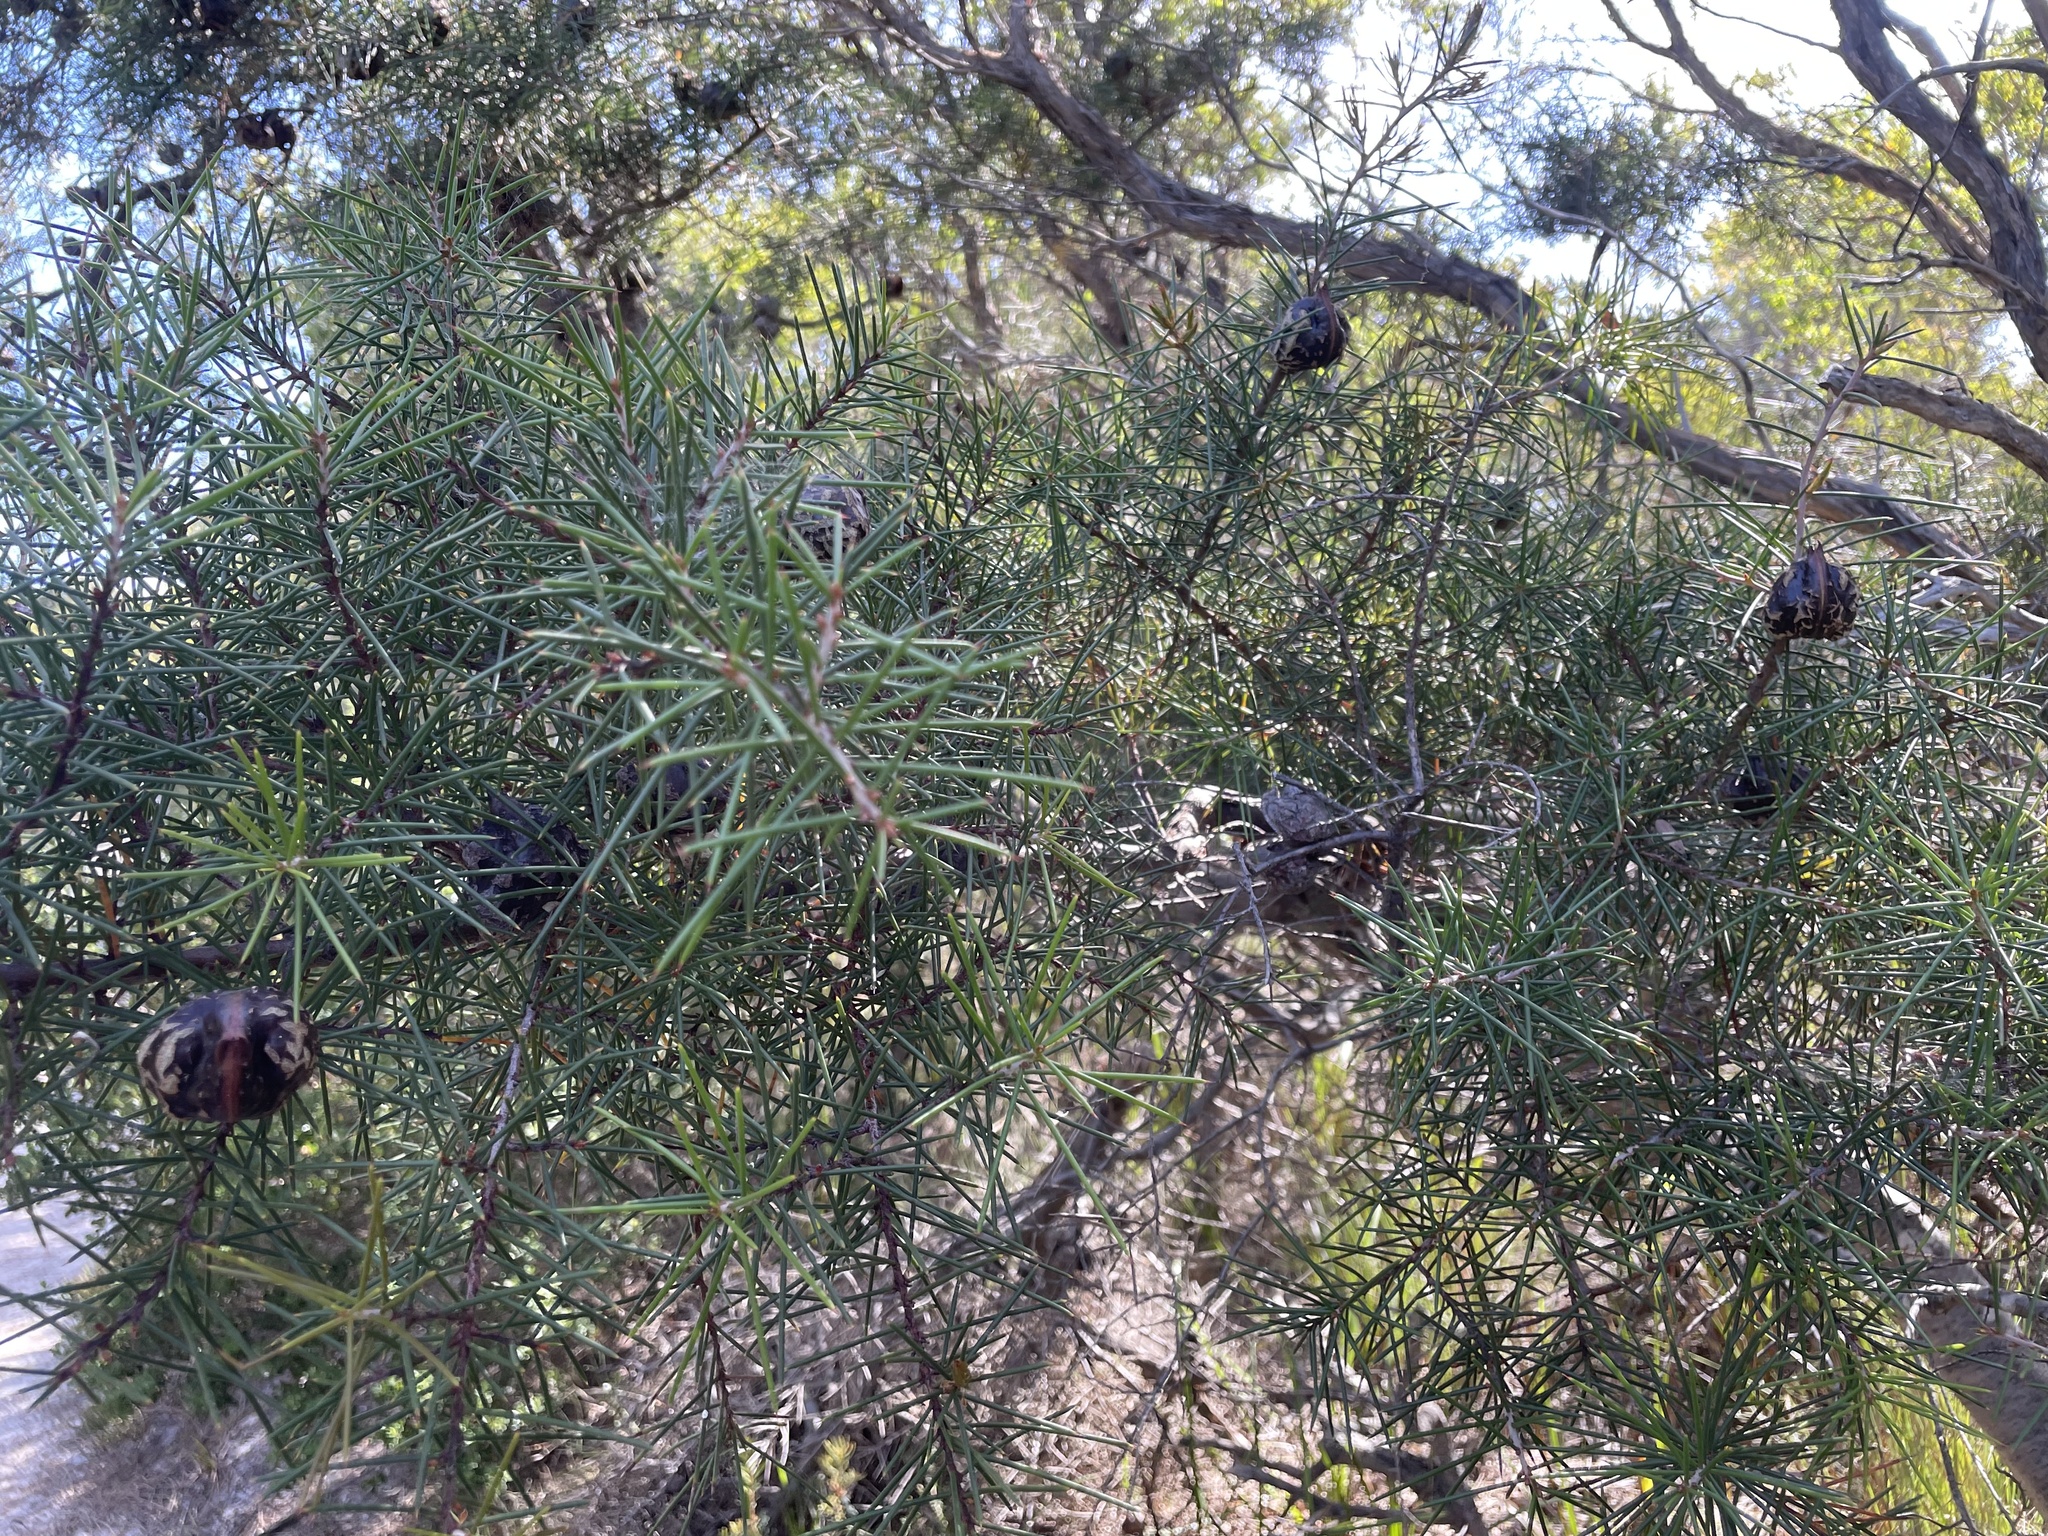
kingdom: Plantae
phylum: Tracheophyta
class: Magnoliopsida
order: Proteales
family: Proteaceae
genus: Hakea
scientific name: Hakea decurrens
